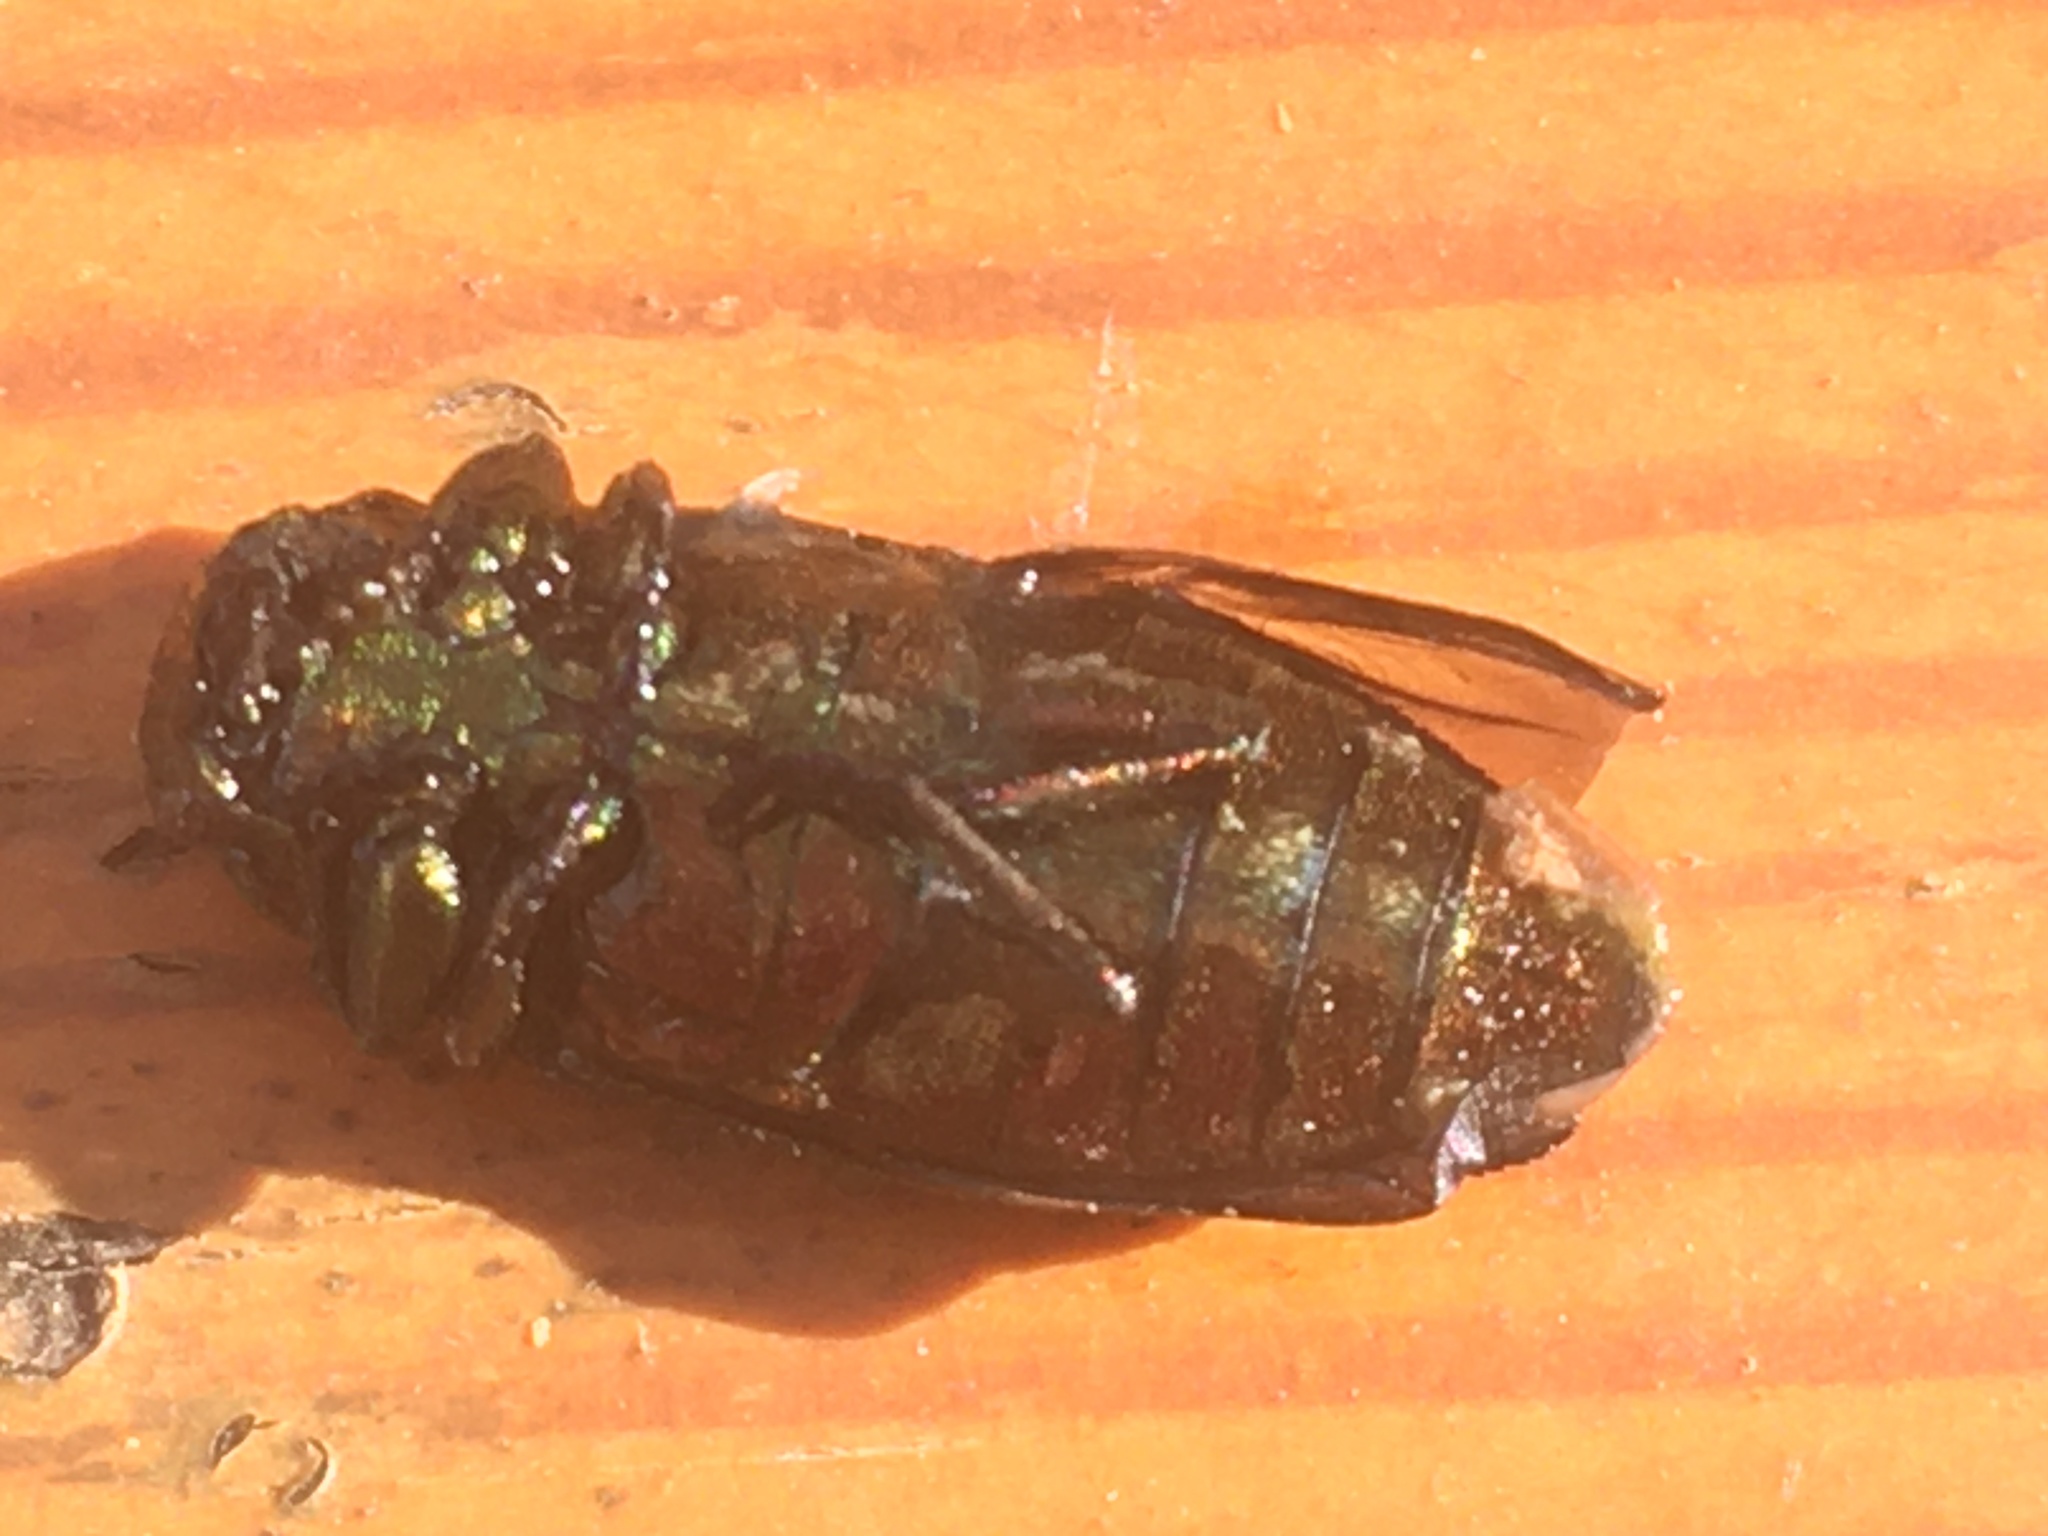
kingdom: Animalia
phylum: Arthropoda
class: Insecta
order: Coleoptera
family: Buprestidae
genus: Chrysobothris
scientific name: Chrysobothris affinis
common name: Beetle
